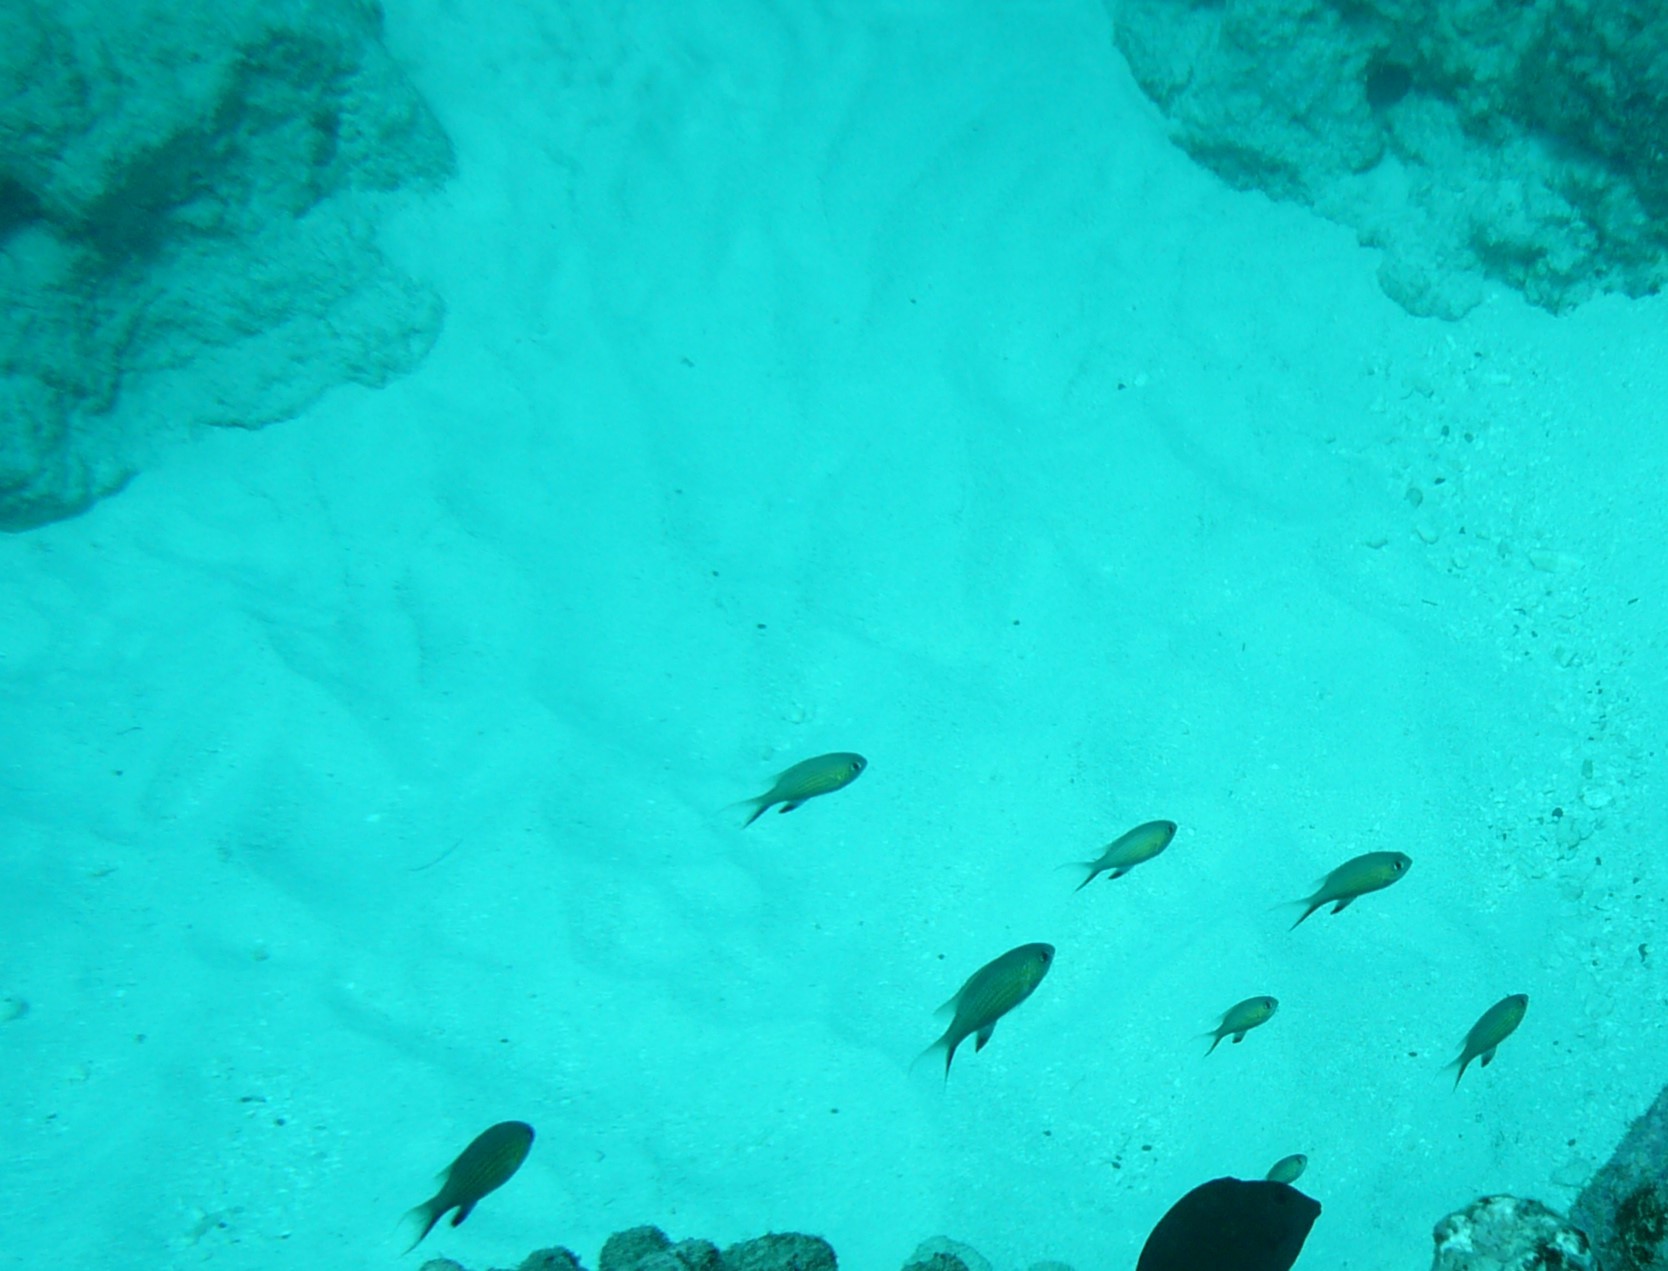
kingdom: Animalia
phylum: Chordata
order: Perciformes
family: Pomacentridae
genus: Chromis
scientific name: Chromis vanderbilti
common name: Vanderbilt's chromis
